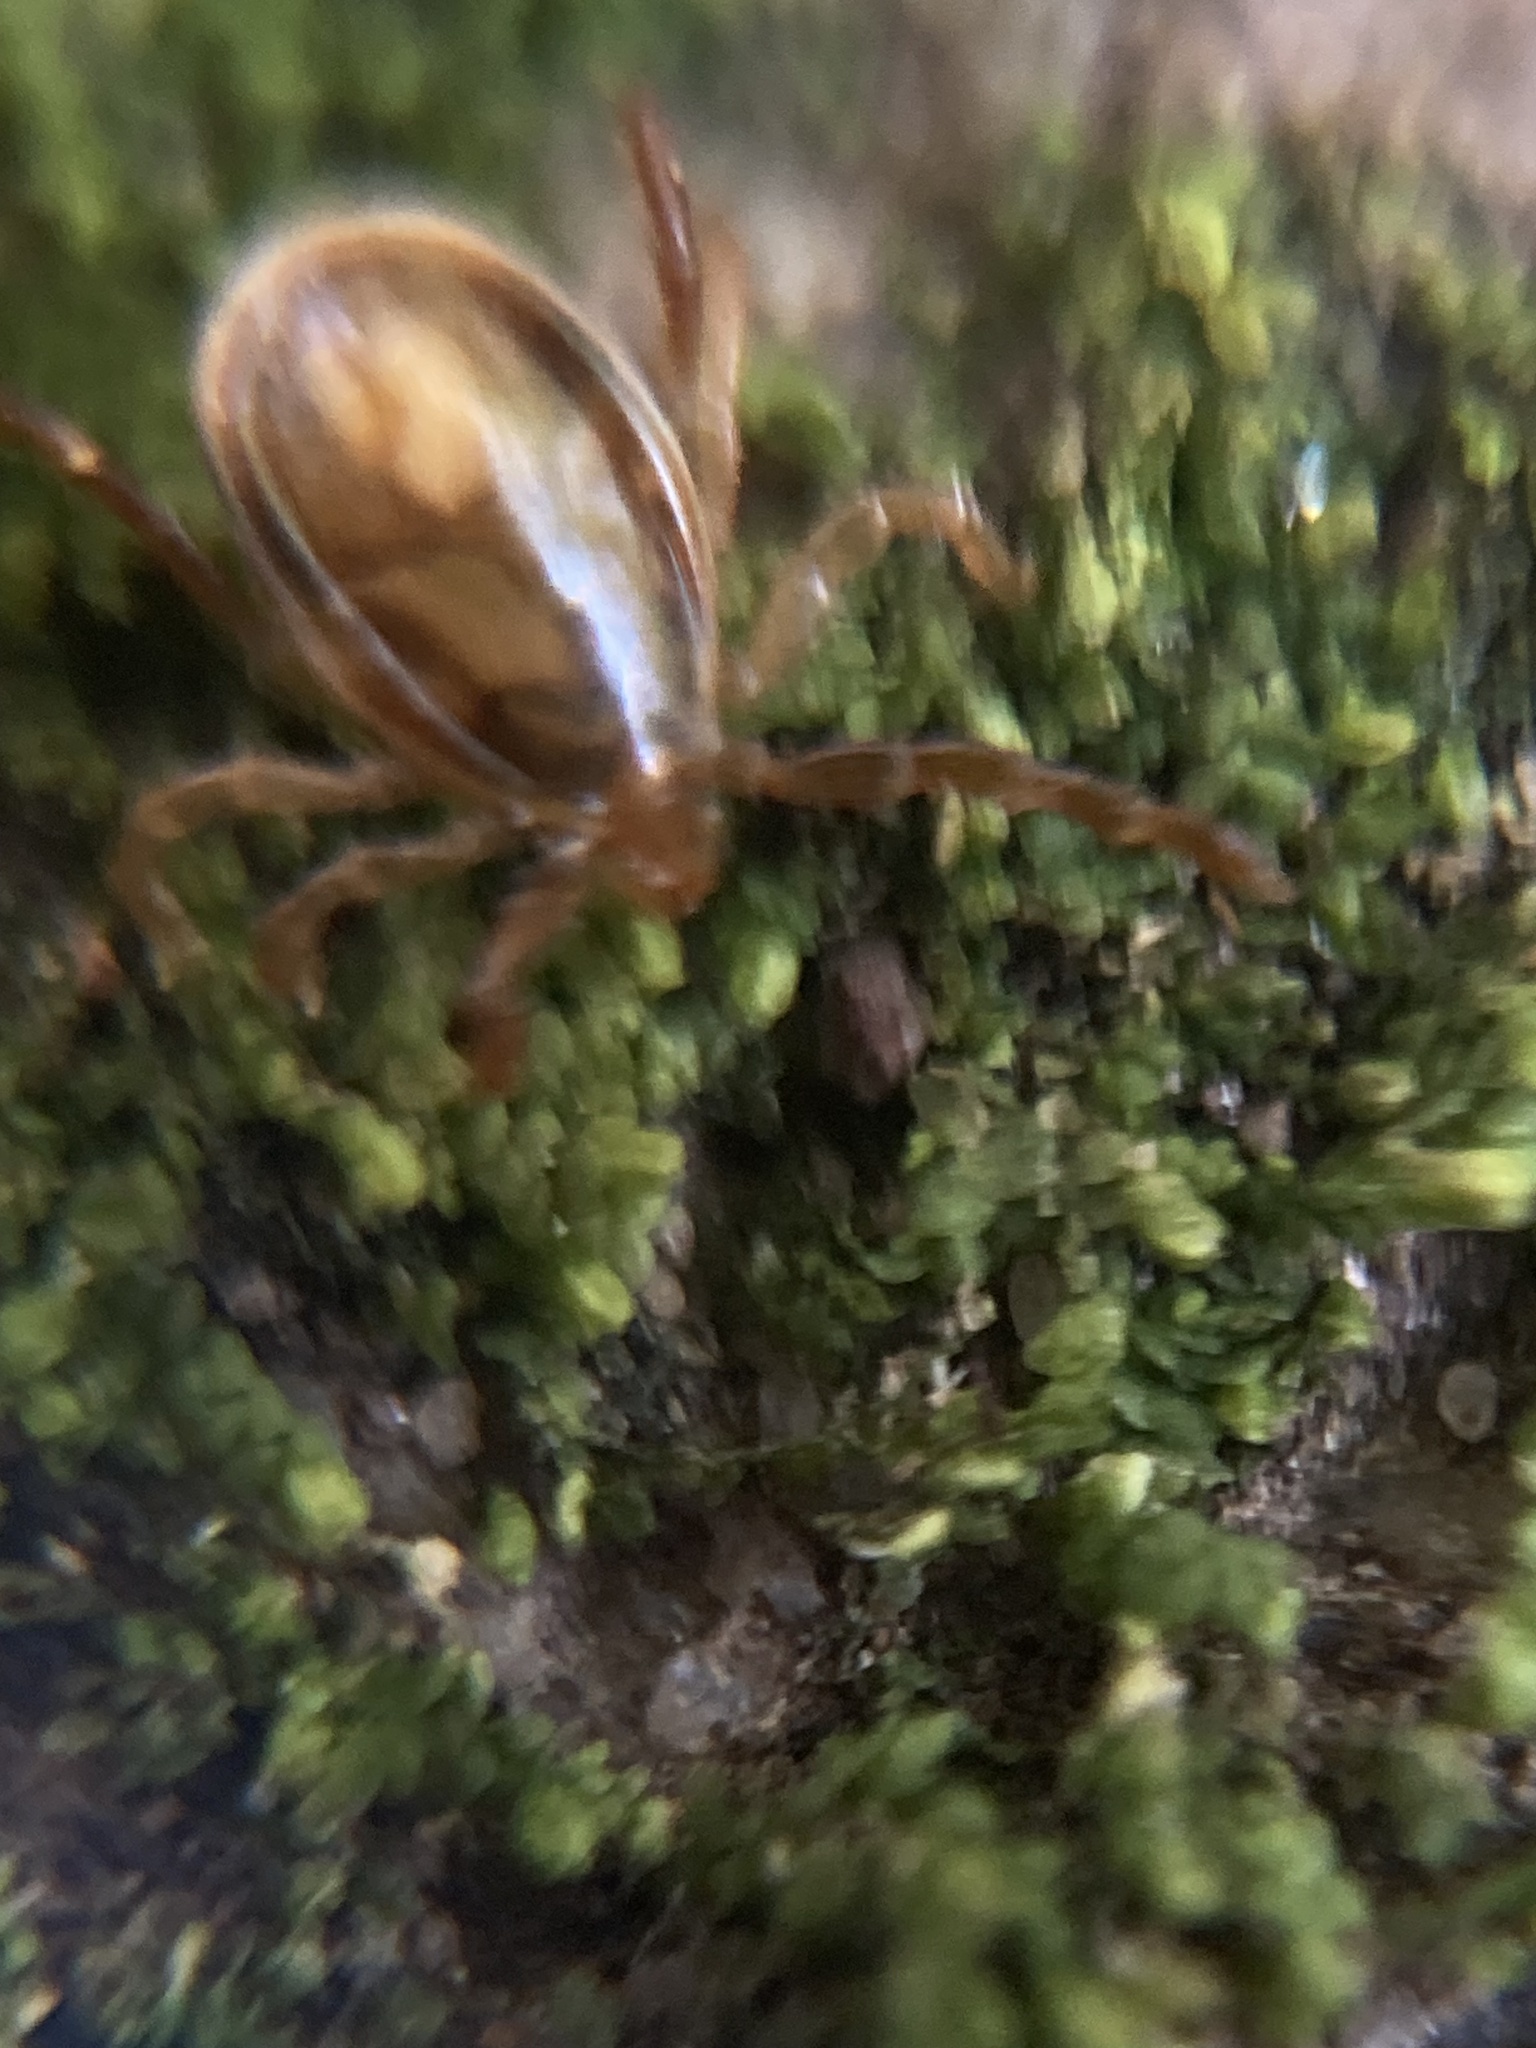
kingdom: Animalia
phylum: Arthropoda
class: Arachnida
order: Ixodida
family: Ixodidae
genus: Ixodes
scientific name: Ixodes holocyclus
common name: Australian paralysis tick
